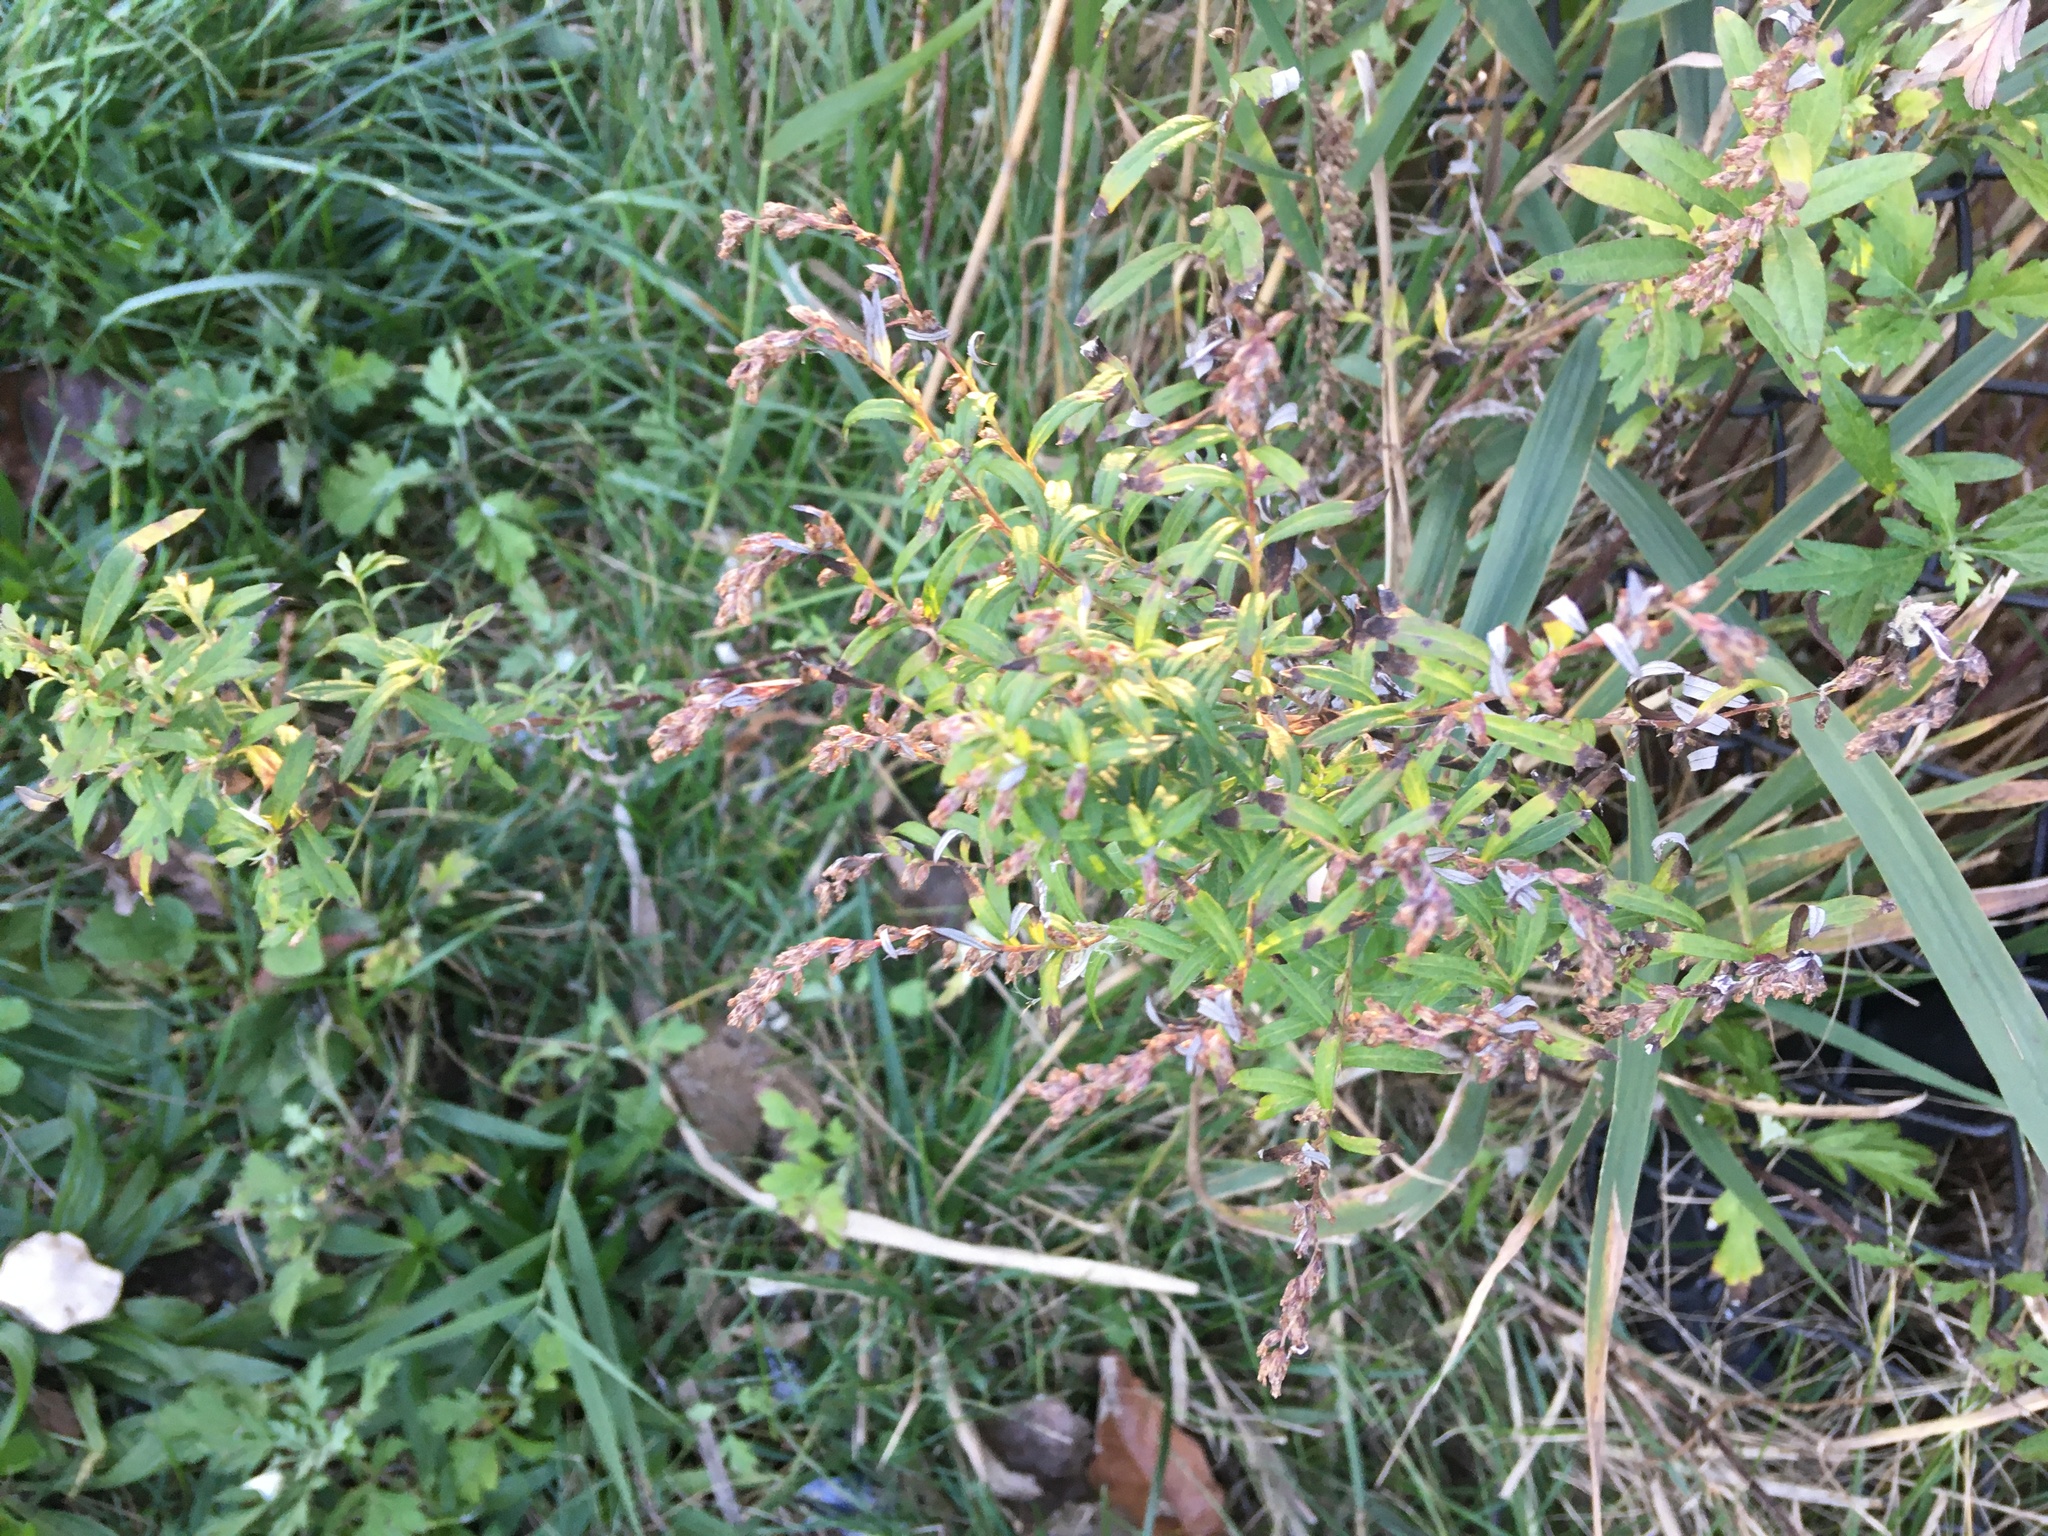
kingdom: Plantae
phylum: Tracheophyta
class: Magnoliopsida
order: Asterales
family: Asteraceae
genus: Artemisia
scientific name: Artemisia vulgaris
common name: Mugwort
